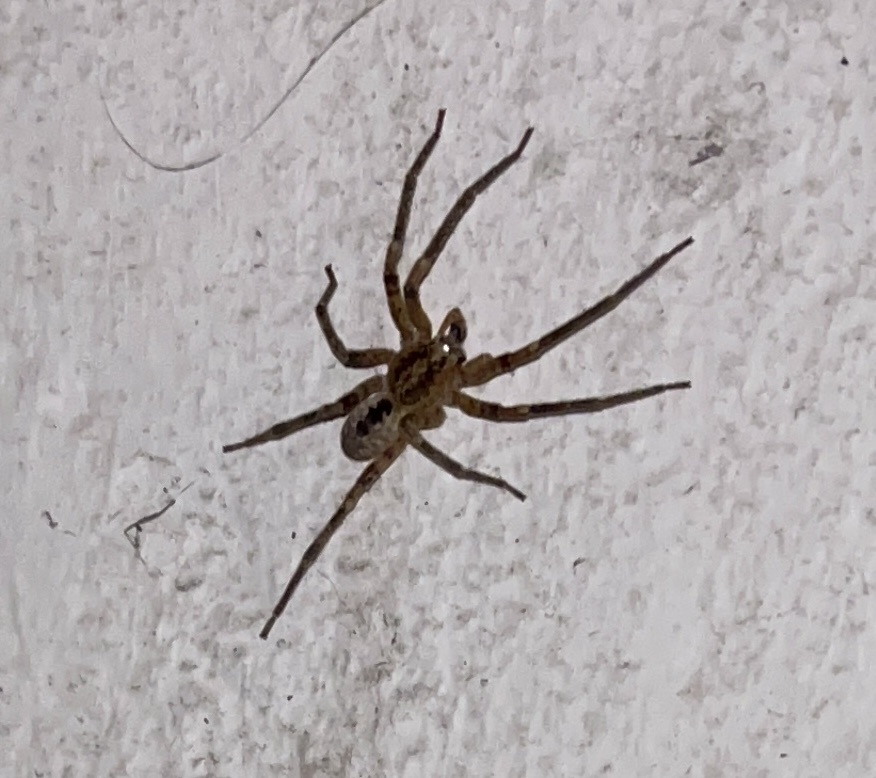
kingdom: Animalia
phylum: Arthropoda
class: Arachnida
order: Araneae
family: Zoropsidae
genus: Zoropsis
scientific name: Zoropsis spinimana
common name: Zoropsid spider
